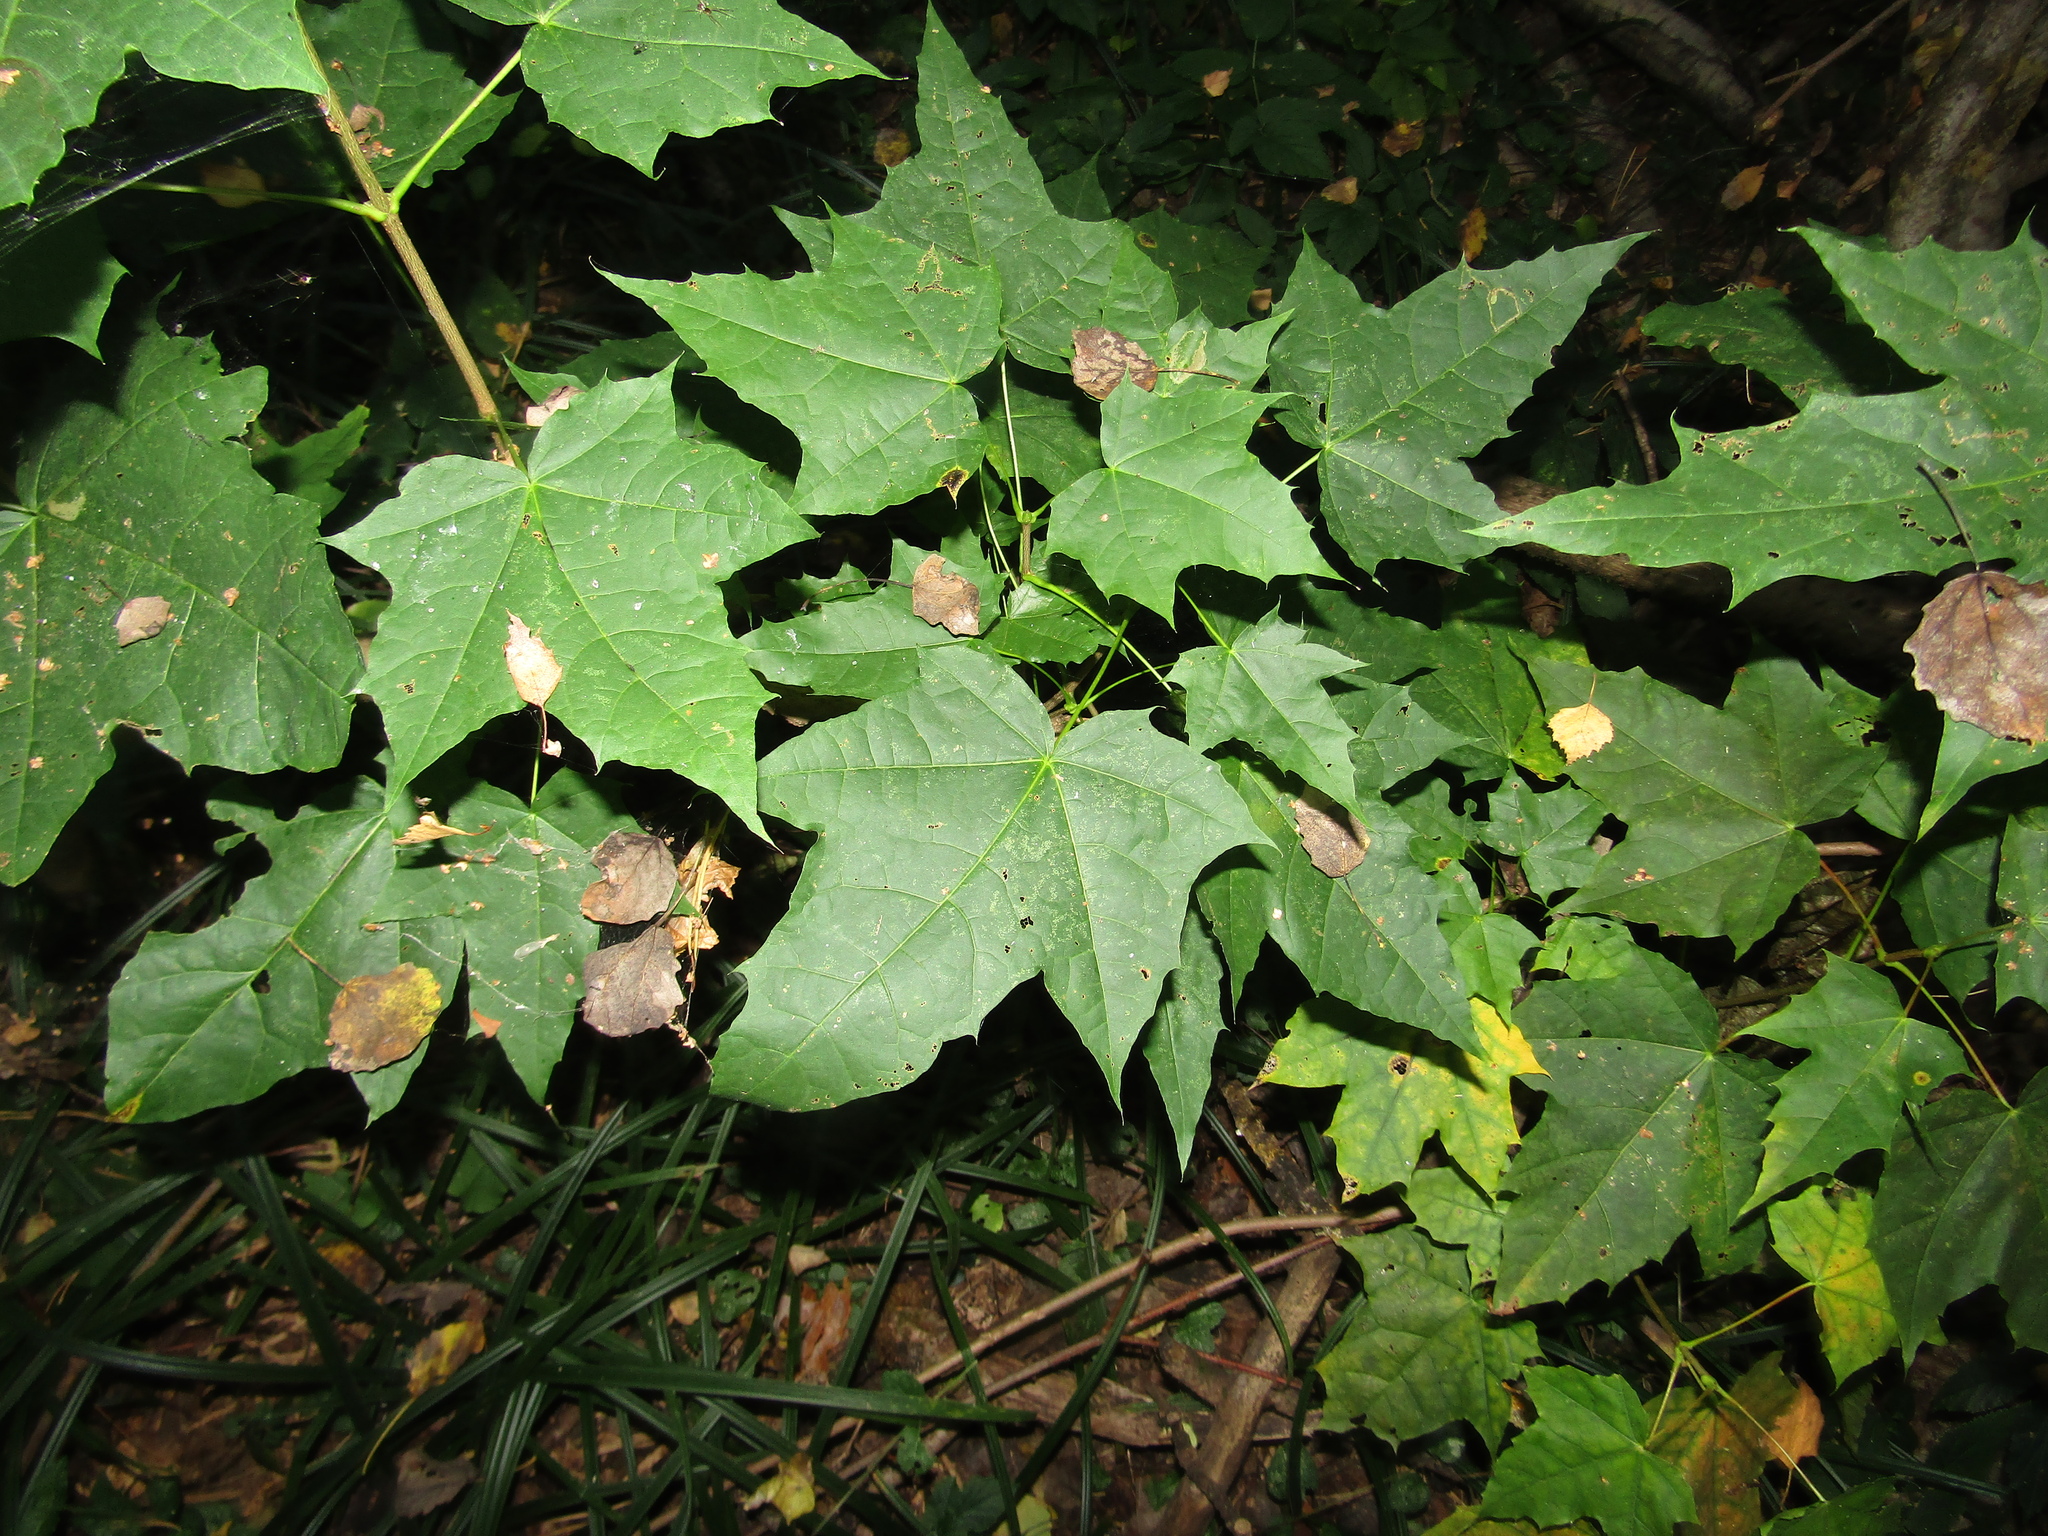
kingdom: Plantae
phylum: Tracheophyta
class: Magnoliopsida
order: Sapindales
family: Sapindaceae
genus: Acer
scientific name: Acer platanoides
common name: Norway maple
